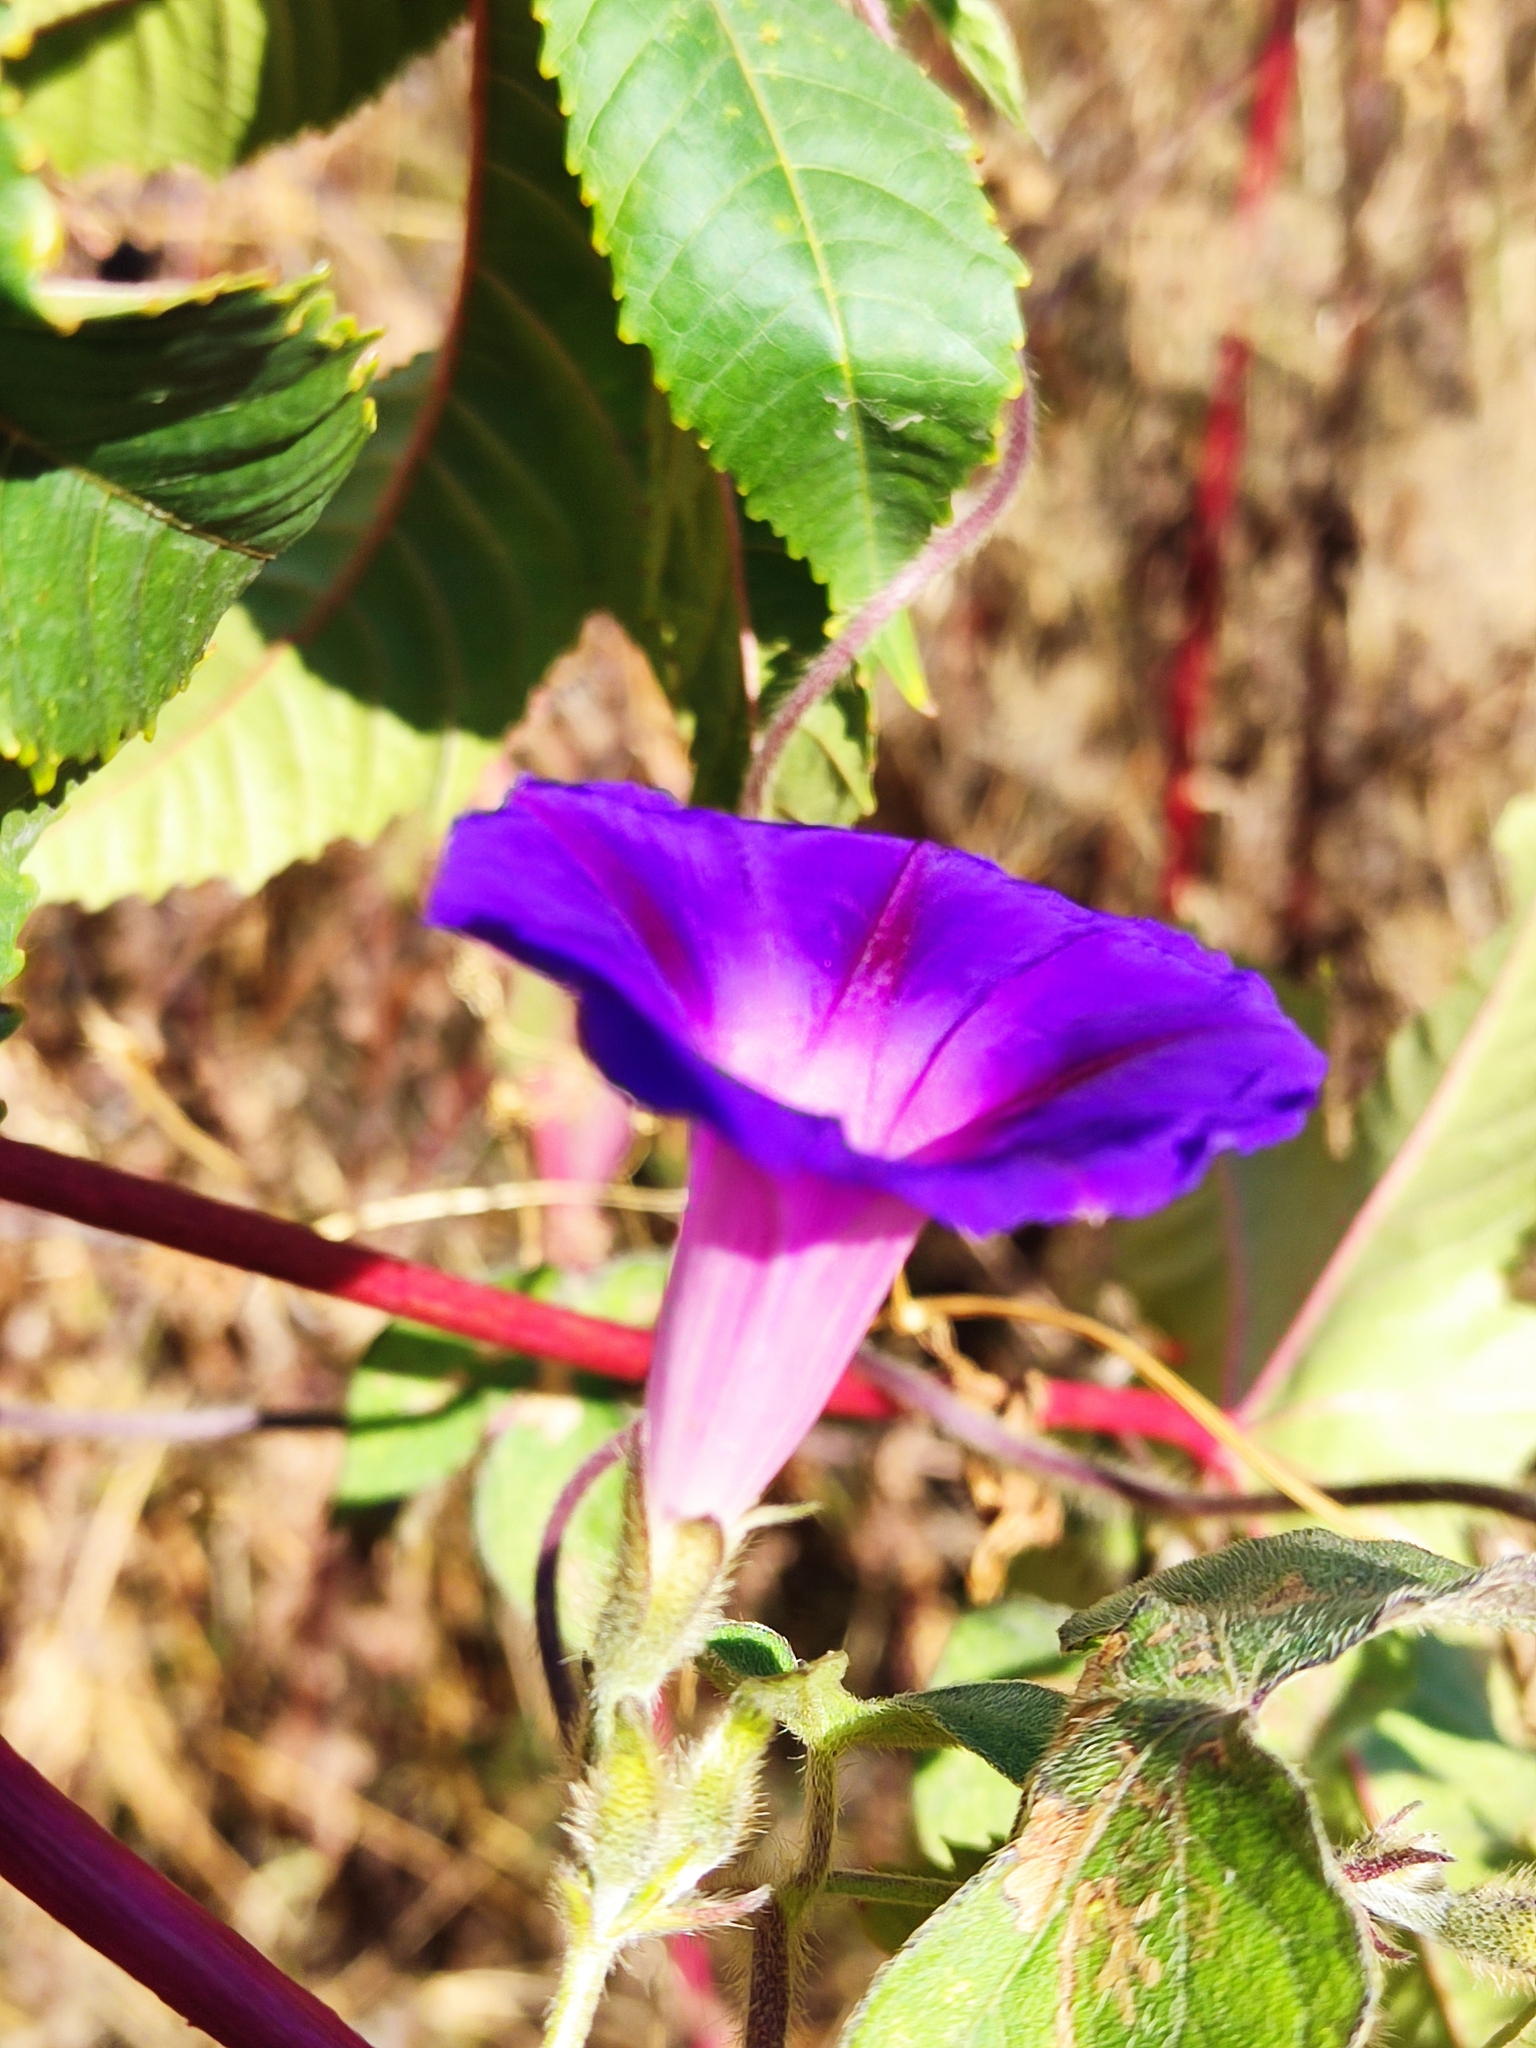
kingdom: Plantae
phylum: Tracheophyta
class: Magnoliopsida
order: Solanales
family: Convolvulaceae
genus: Ipomoea
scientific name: Ipomoea purpurea
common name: Common morning-glory
